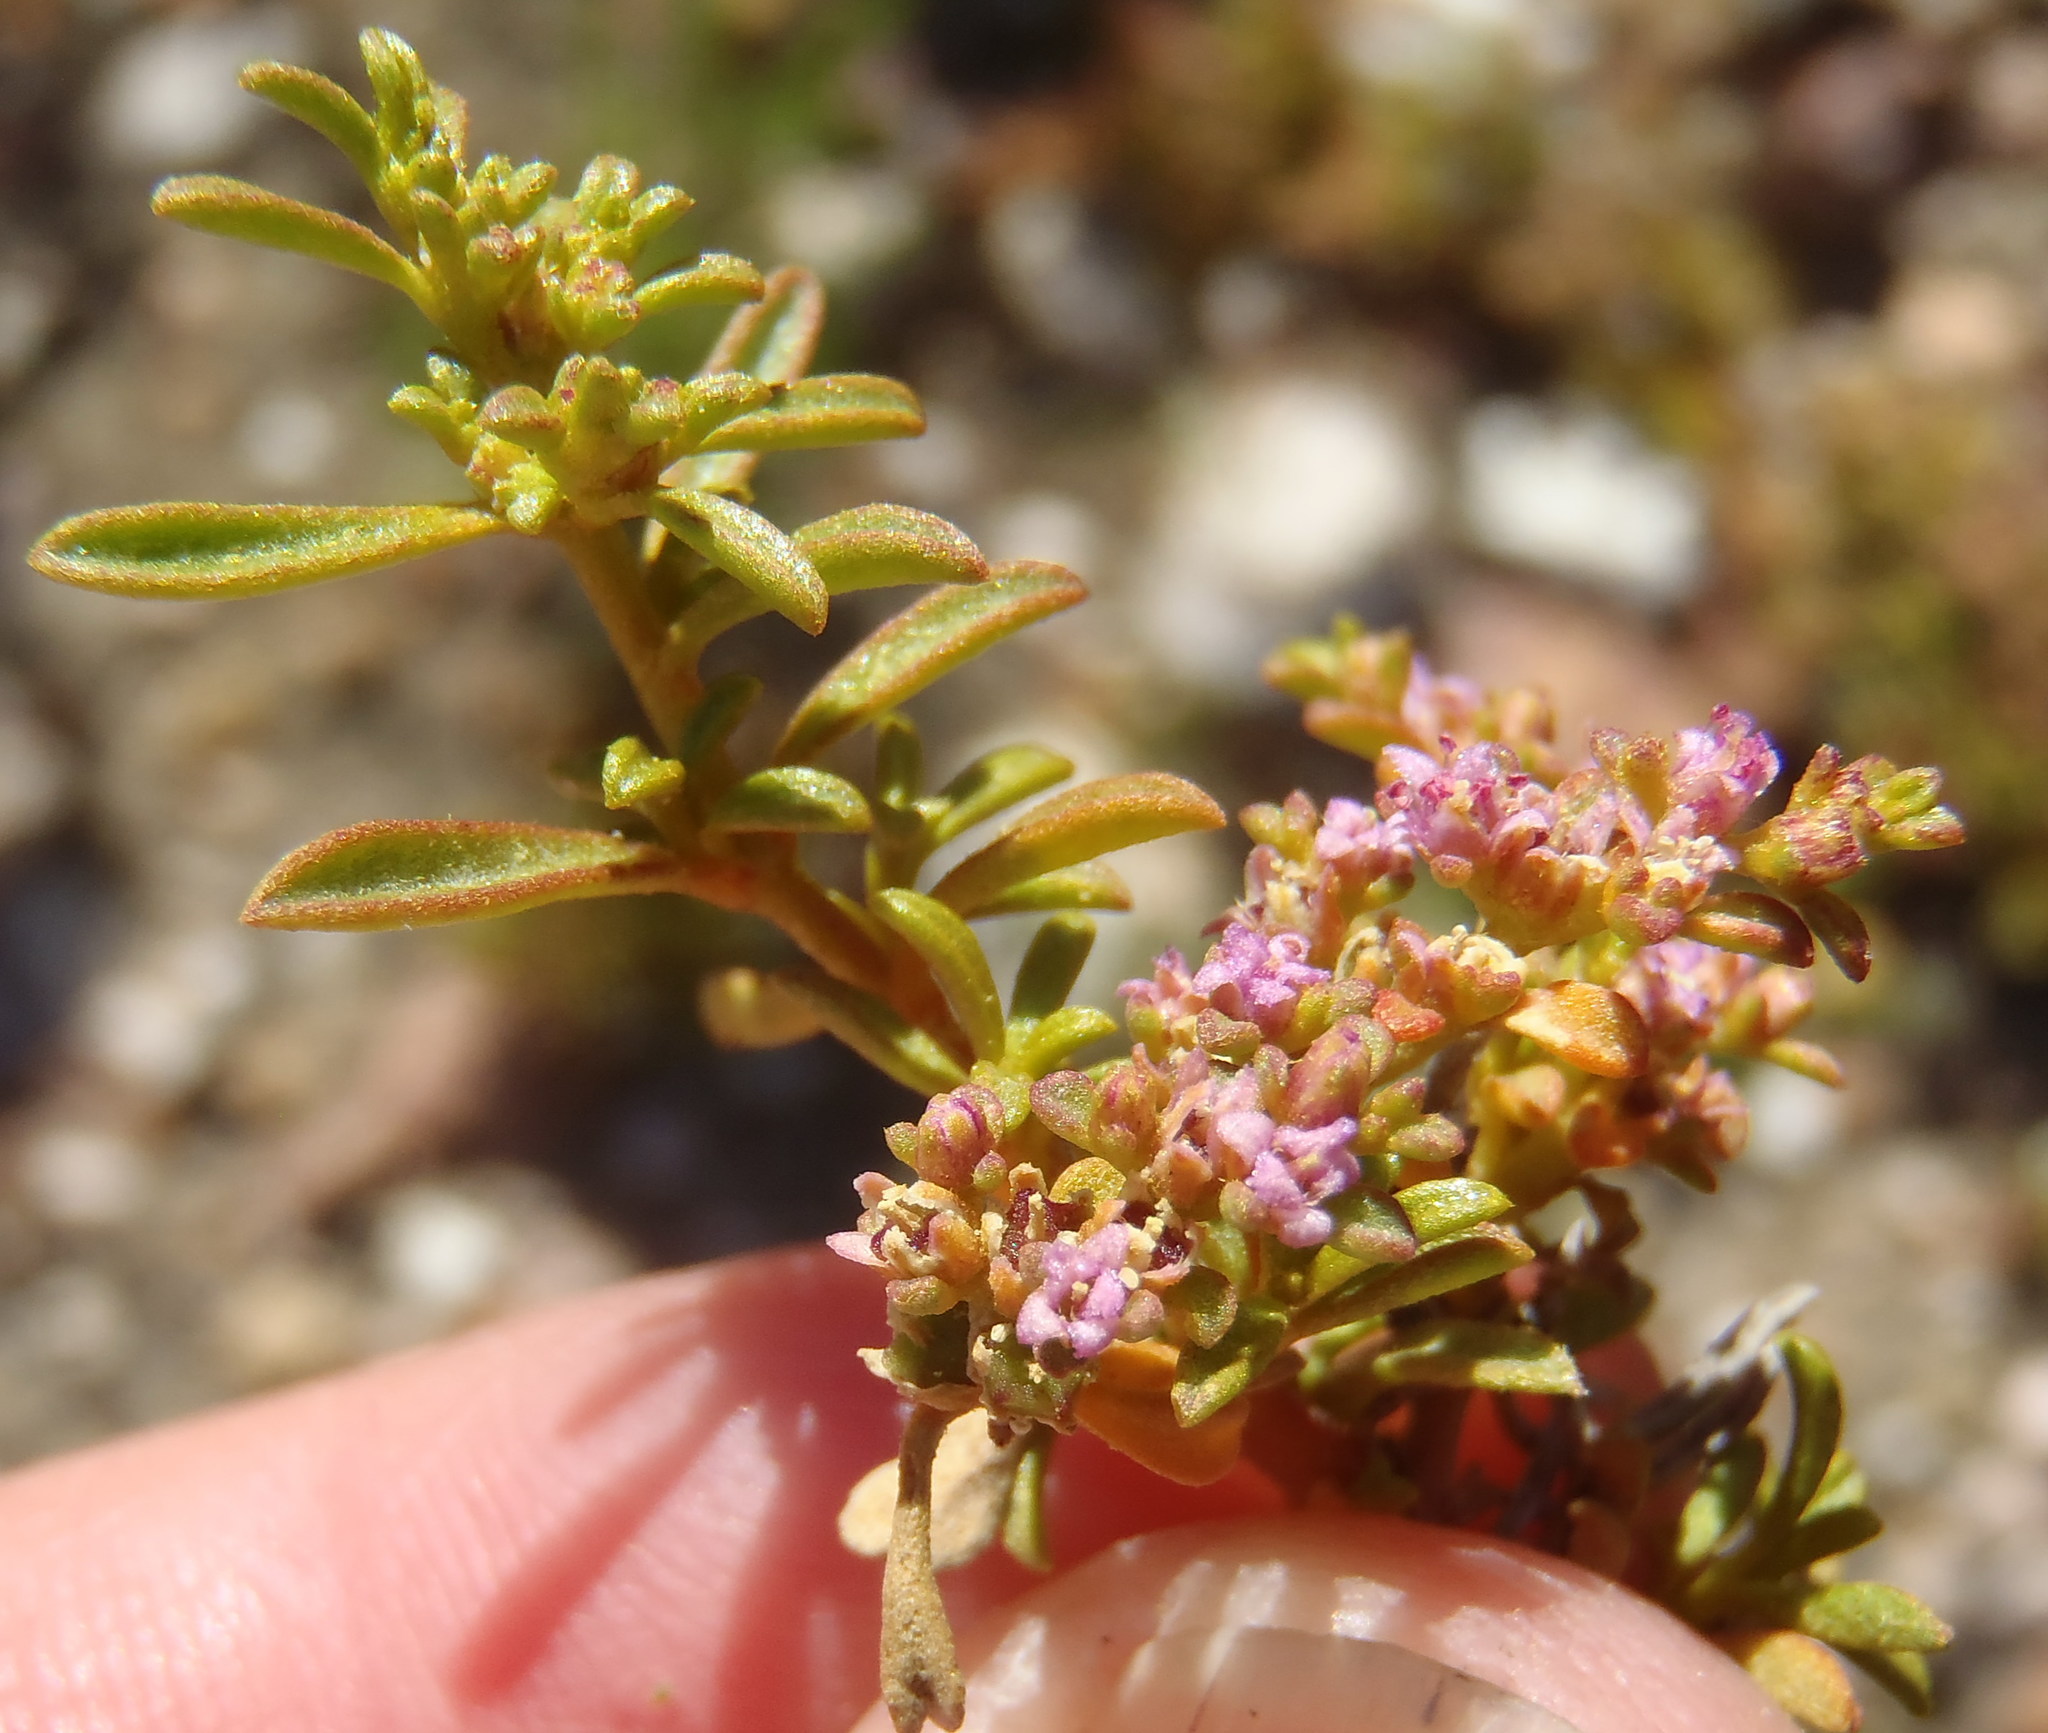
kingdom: Plantae
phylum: Tracheophyta
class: Magnoliopsida
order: Caryophyllales
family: Aizoaceae
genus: Aizoon
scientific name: Aizoon portulacaceum
